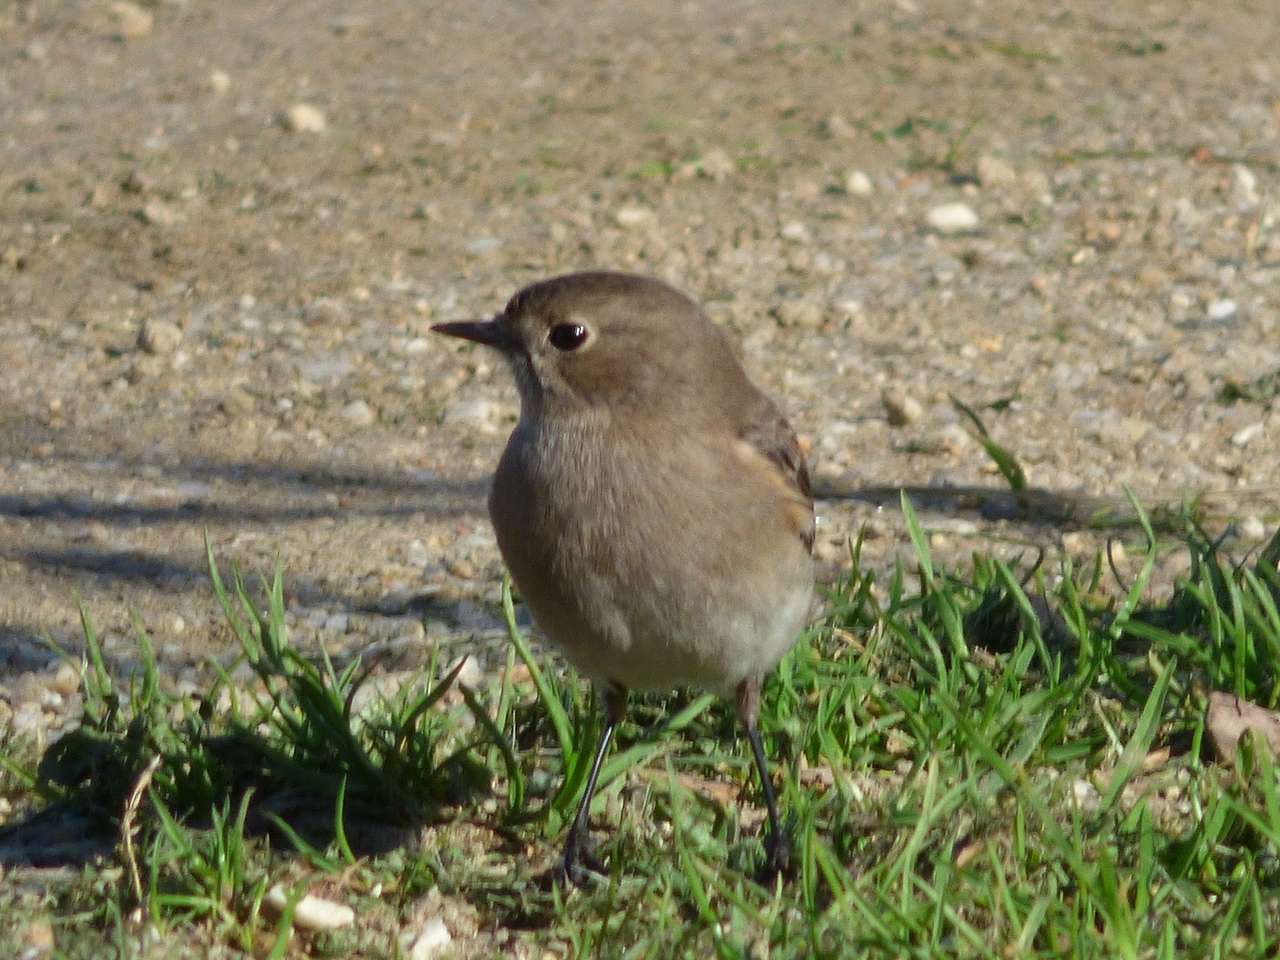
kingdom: Animalia
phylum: Chordata
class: Aves
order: Passeriformes
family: Petroicidae
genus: Petroica
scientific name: Petroica phoenicea
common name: Flame robin
